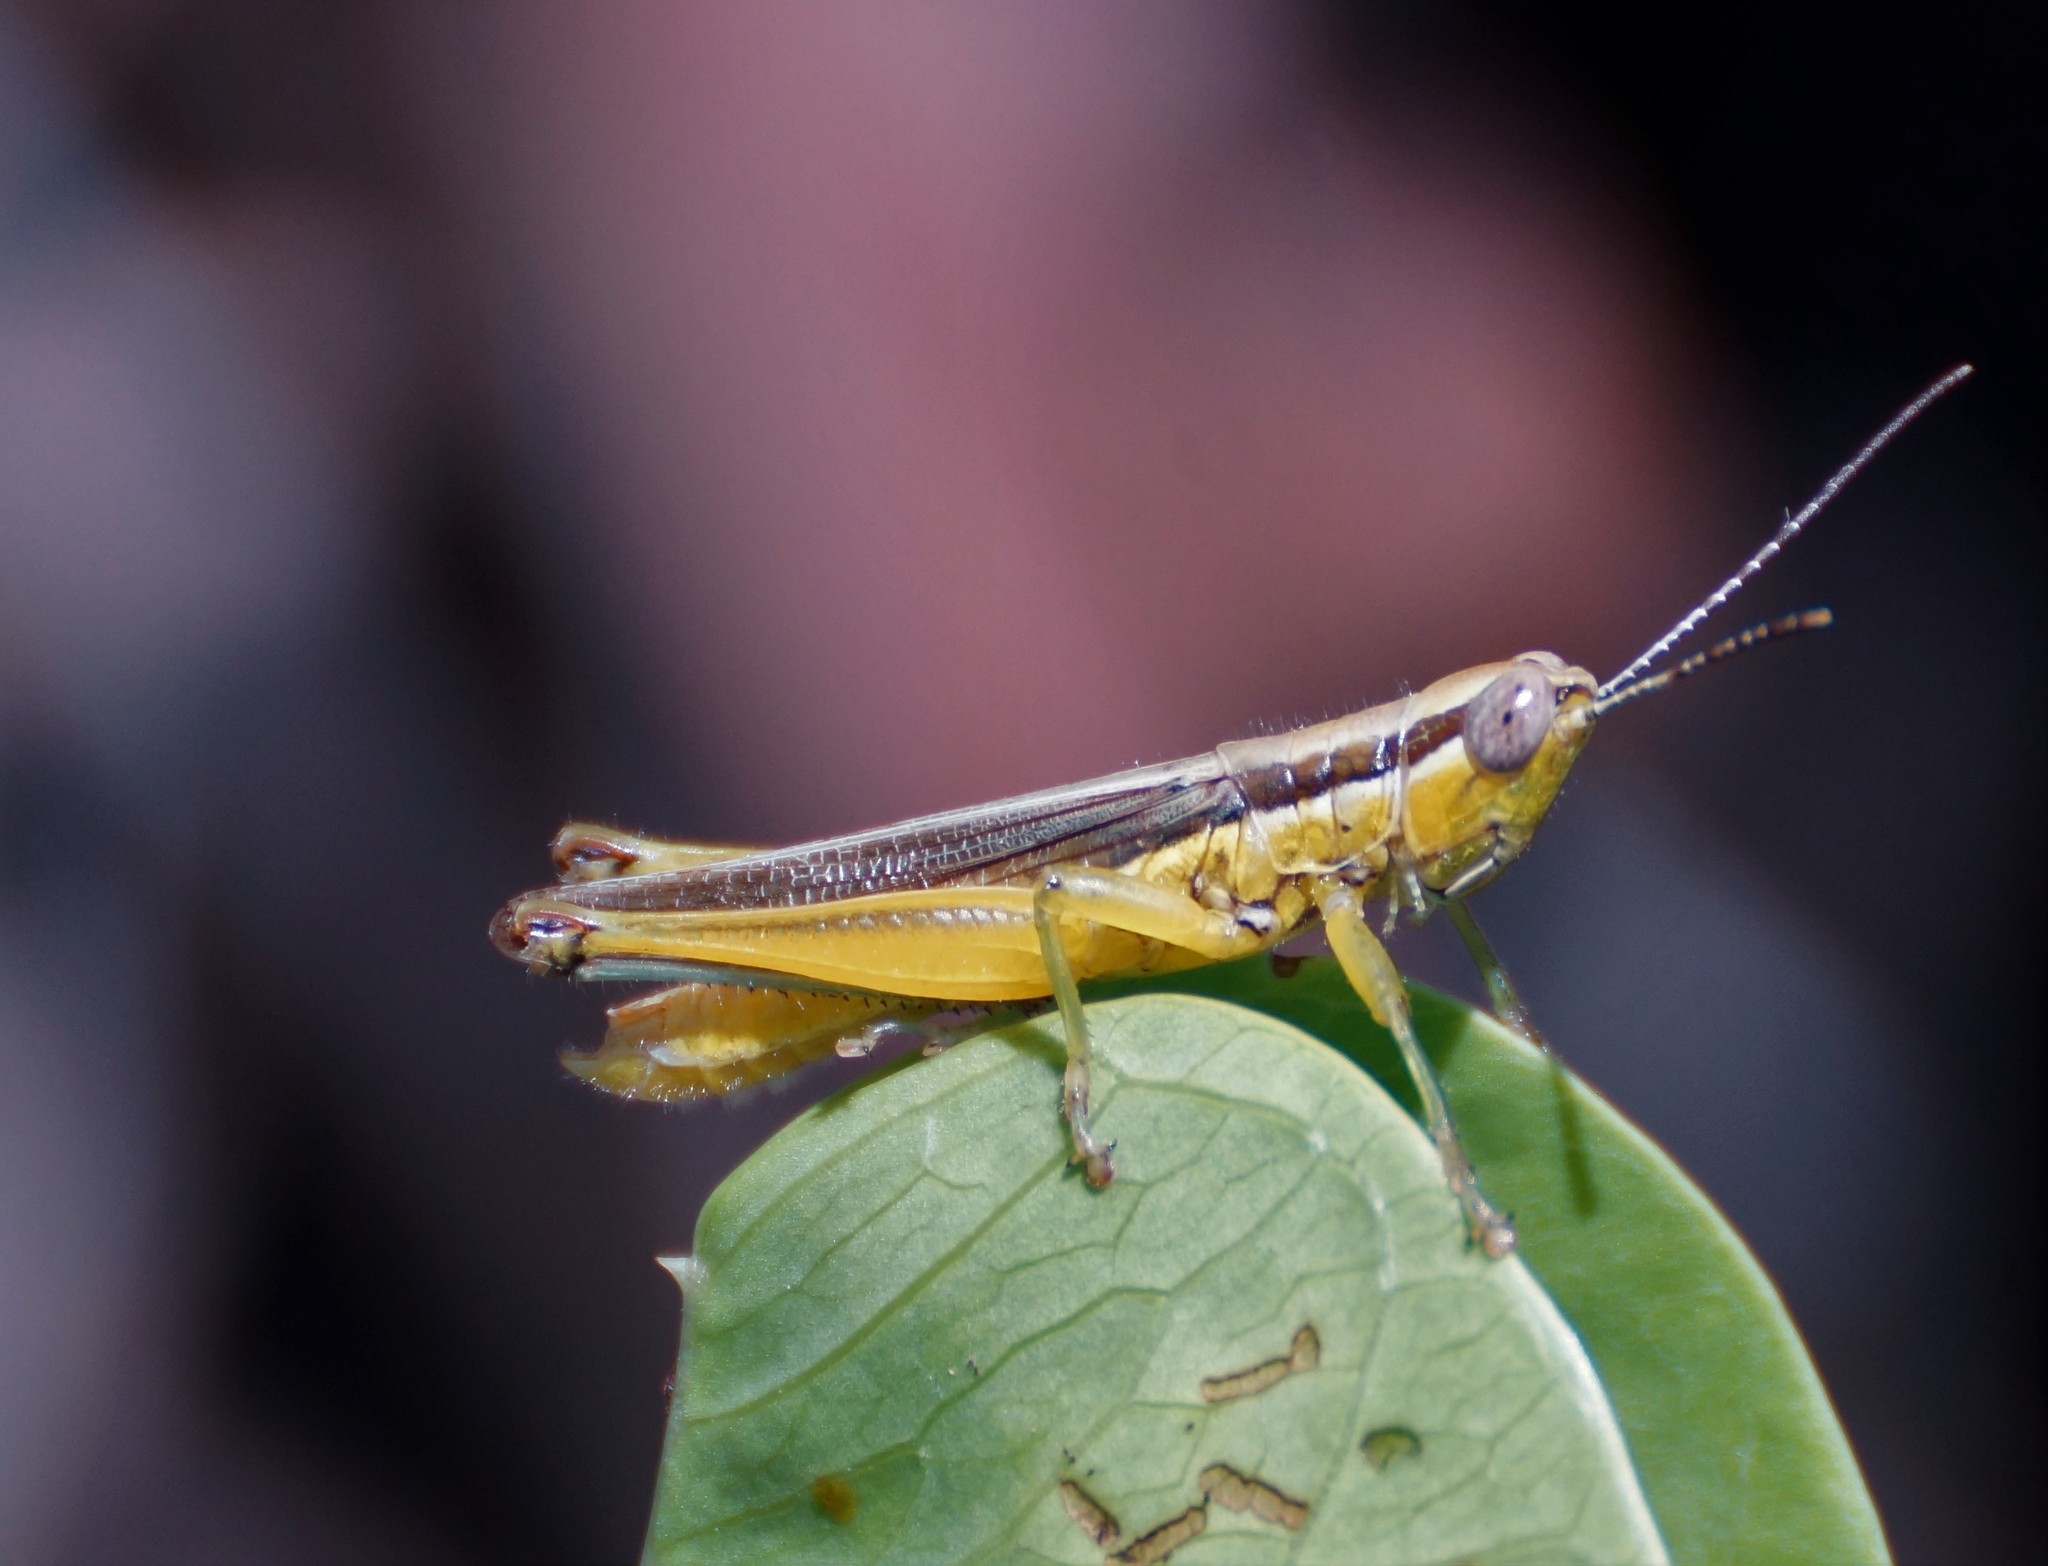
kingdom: Animalia
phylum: Arthropoda
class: Insecta
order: Orthoptera
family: Acrididae
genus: Bermius
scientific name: Bermius curvicercus
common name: Sorghum bermius
